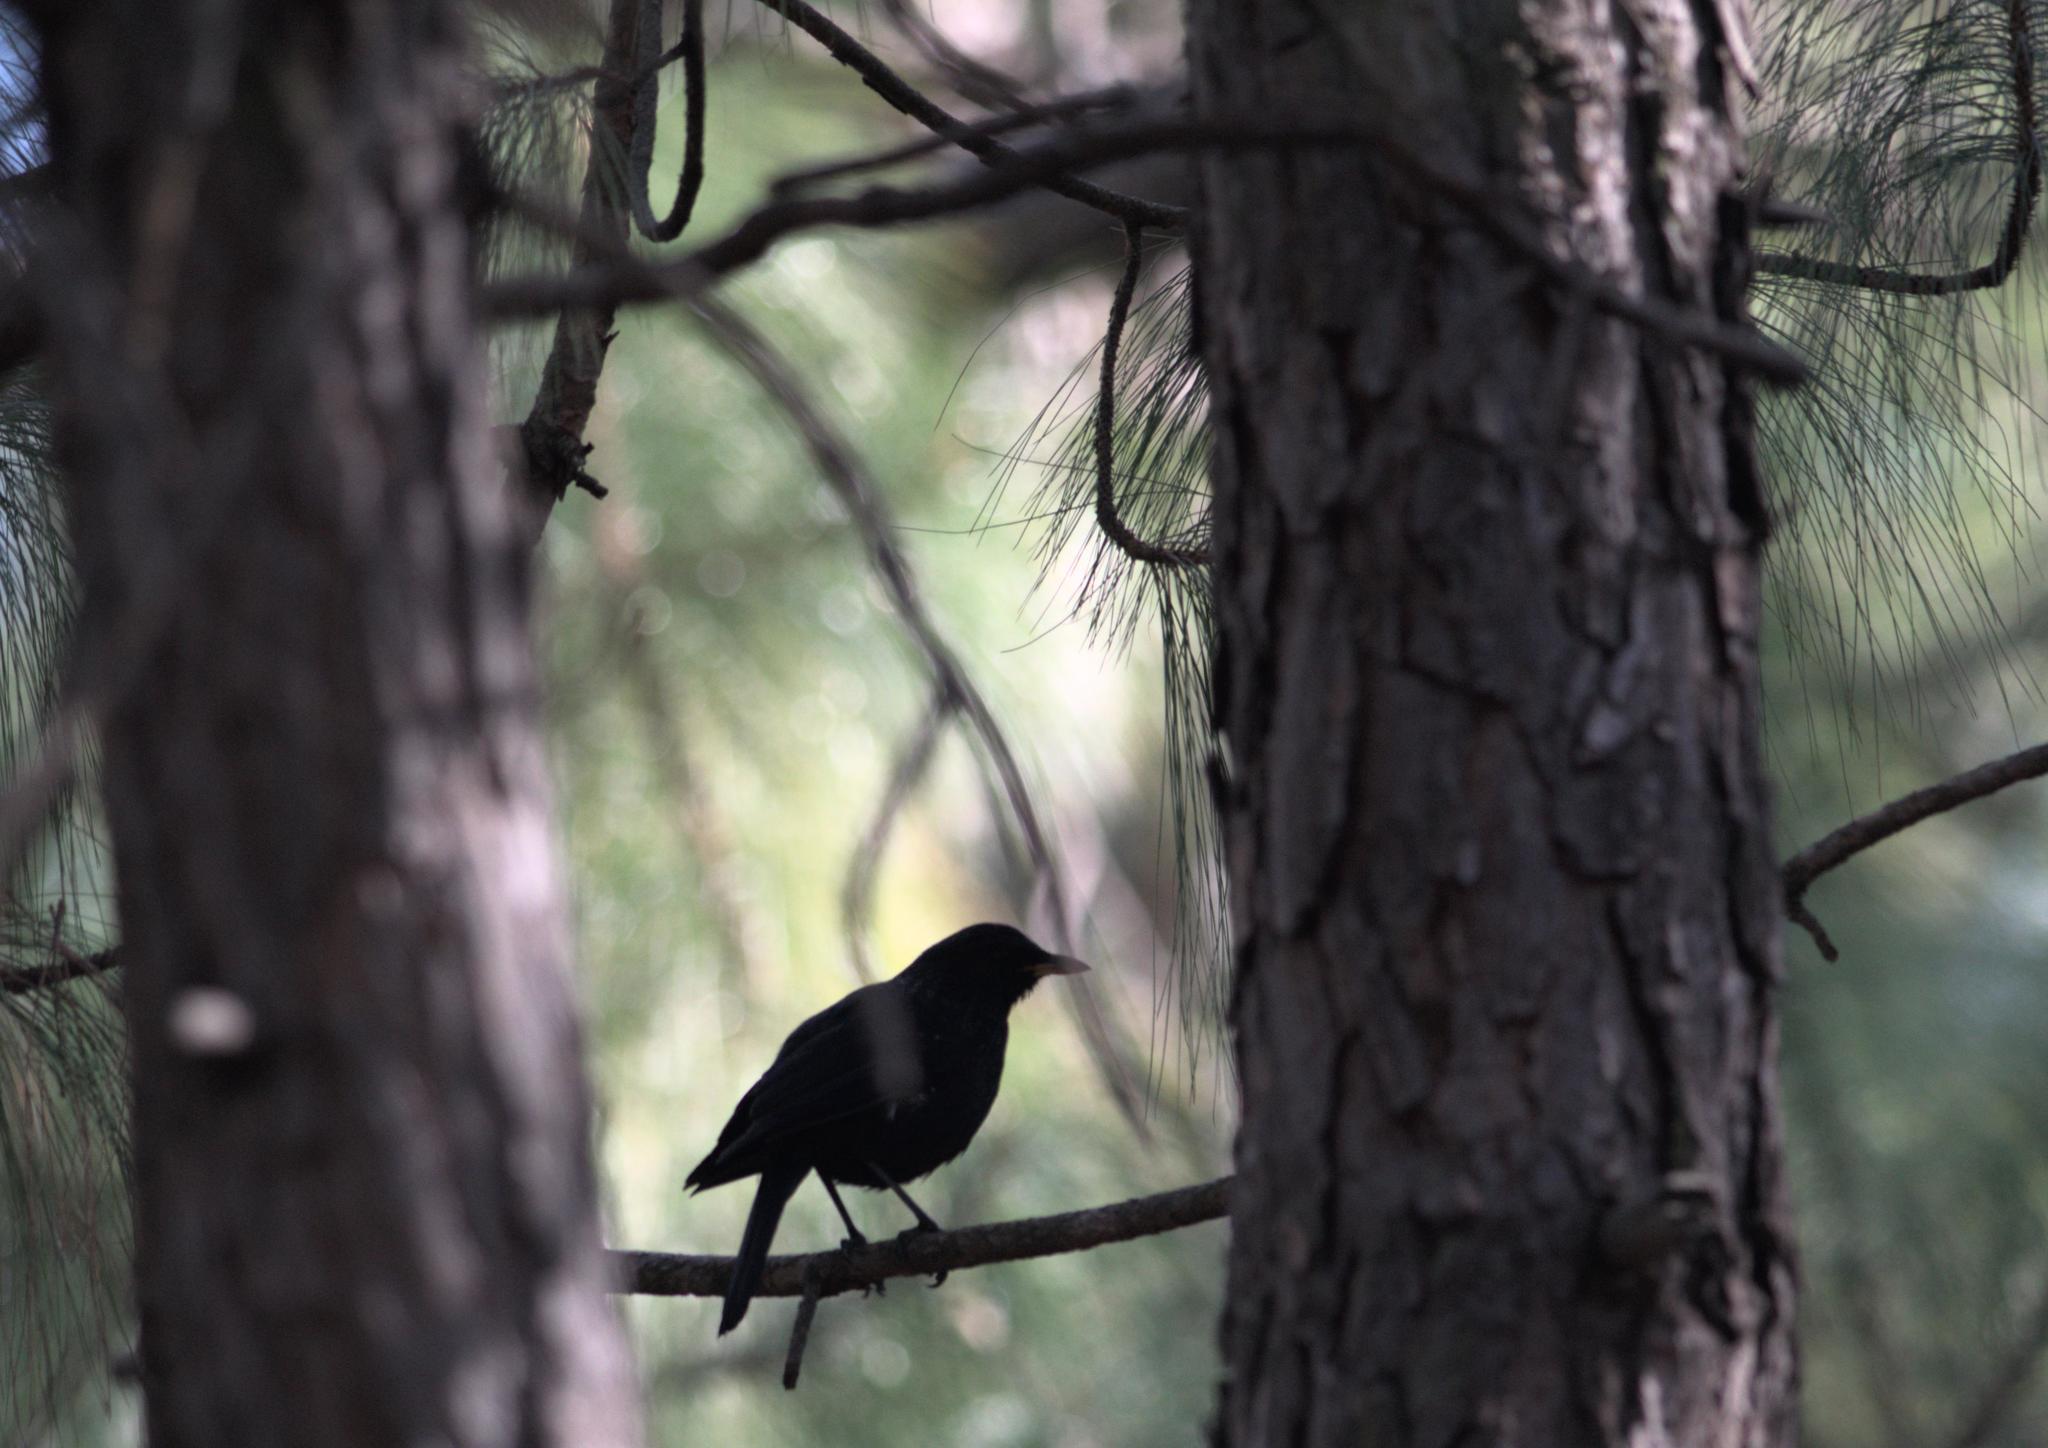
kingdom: Animalia
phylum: Chordata
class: Aves
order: Passeriformes
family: Muscicapidae
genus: Myophonus
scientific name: Myophonus caeruleus
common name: Blue whistling-thrush
